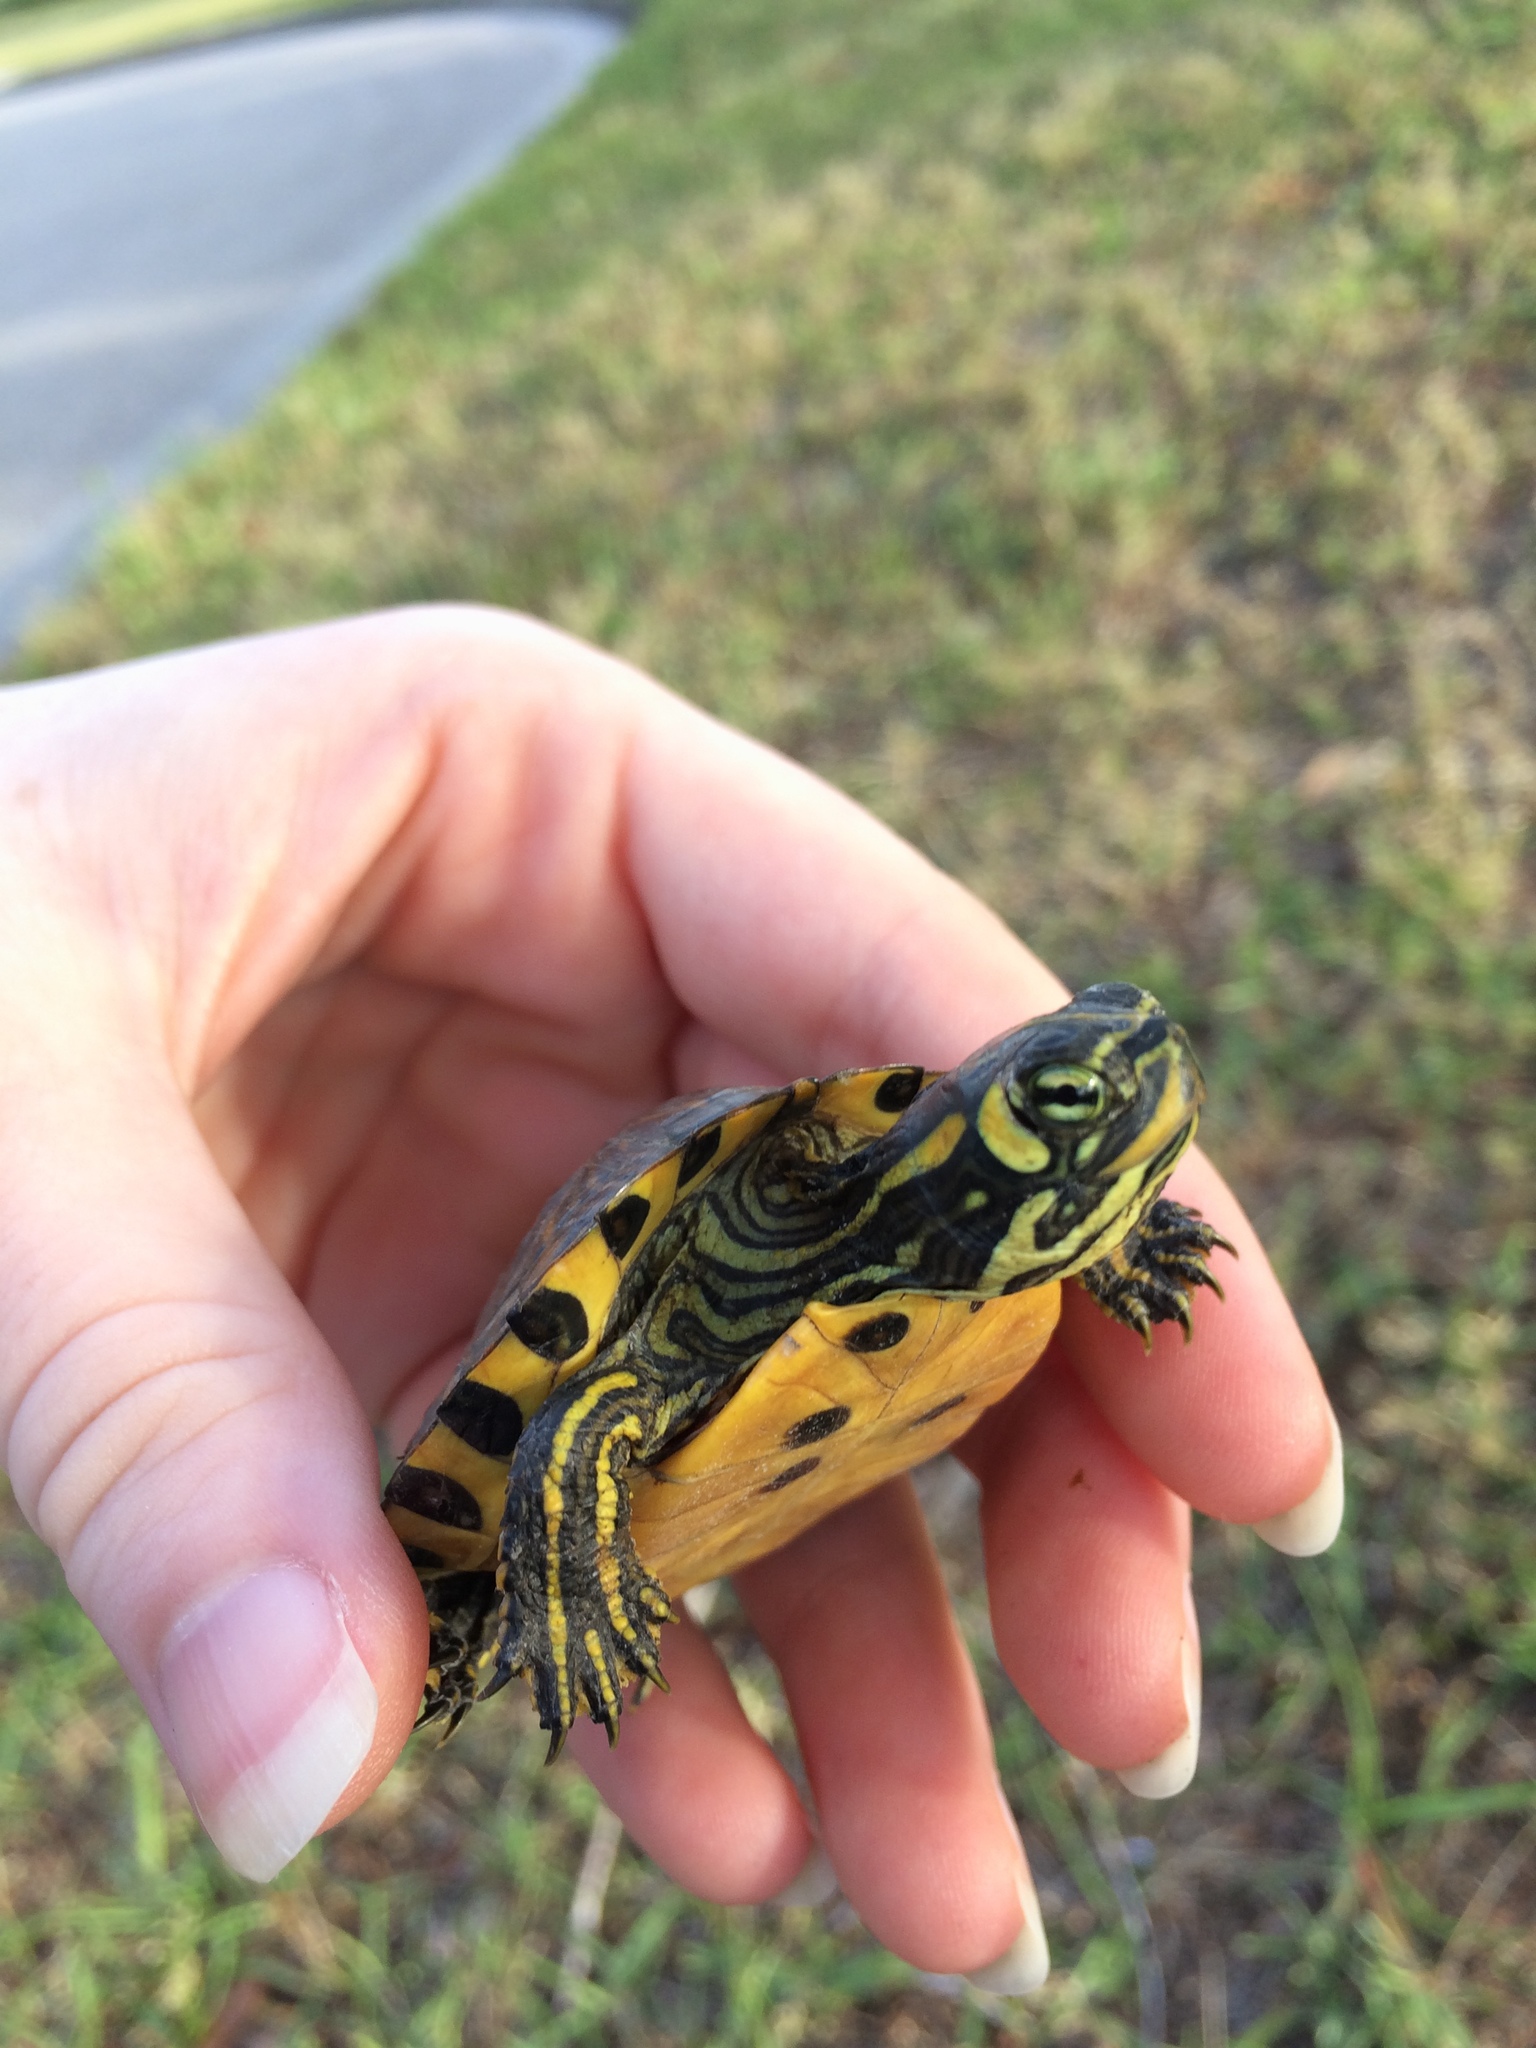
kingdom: Animalia
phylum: Chordata
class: Testudines
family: Emydidae
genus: Trachemys
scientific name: Trachemys scripta
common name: Slider
